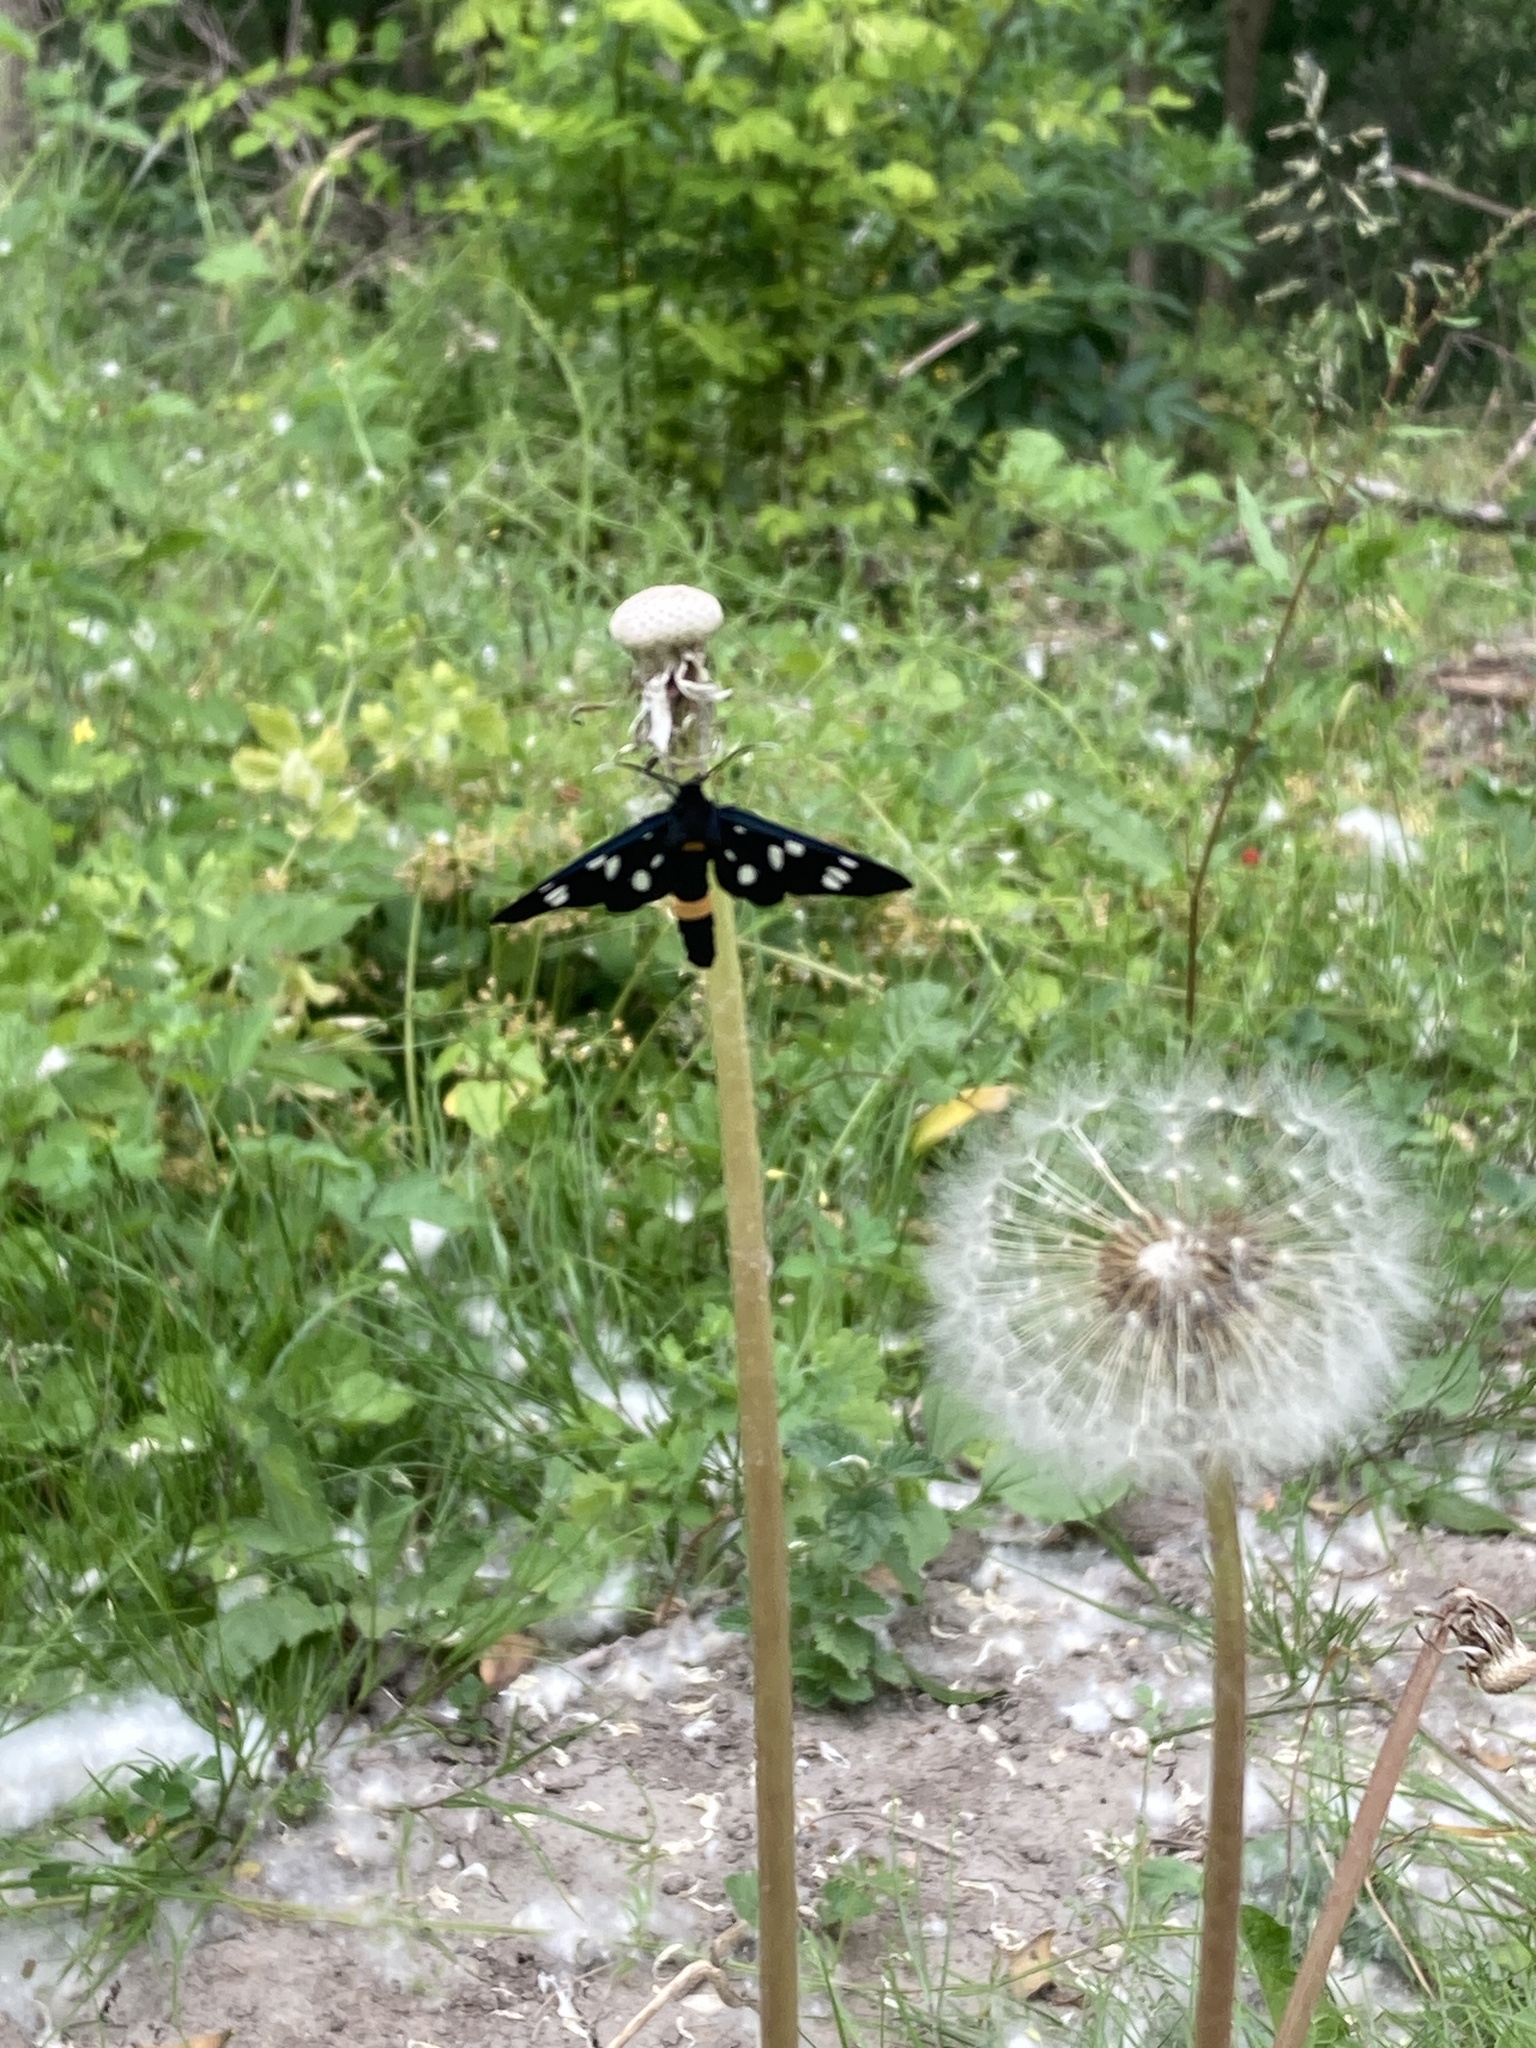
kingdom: Animalia
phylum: Arthropoda
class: Insecta
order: Lepidoptera
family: Erebidae
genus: Amata
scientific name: Amata phegea
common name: Nine-spotted
